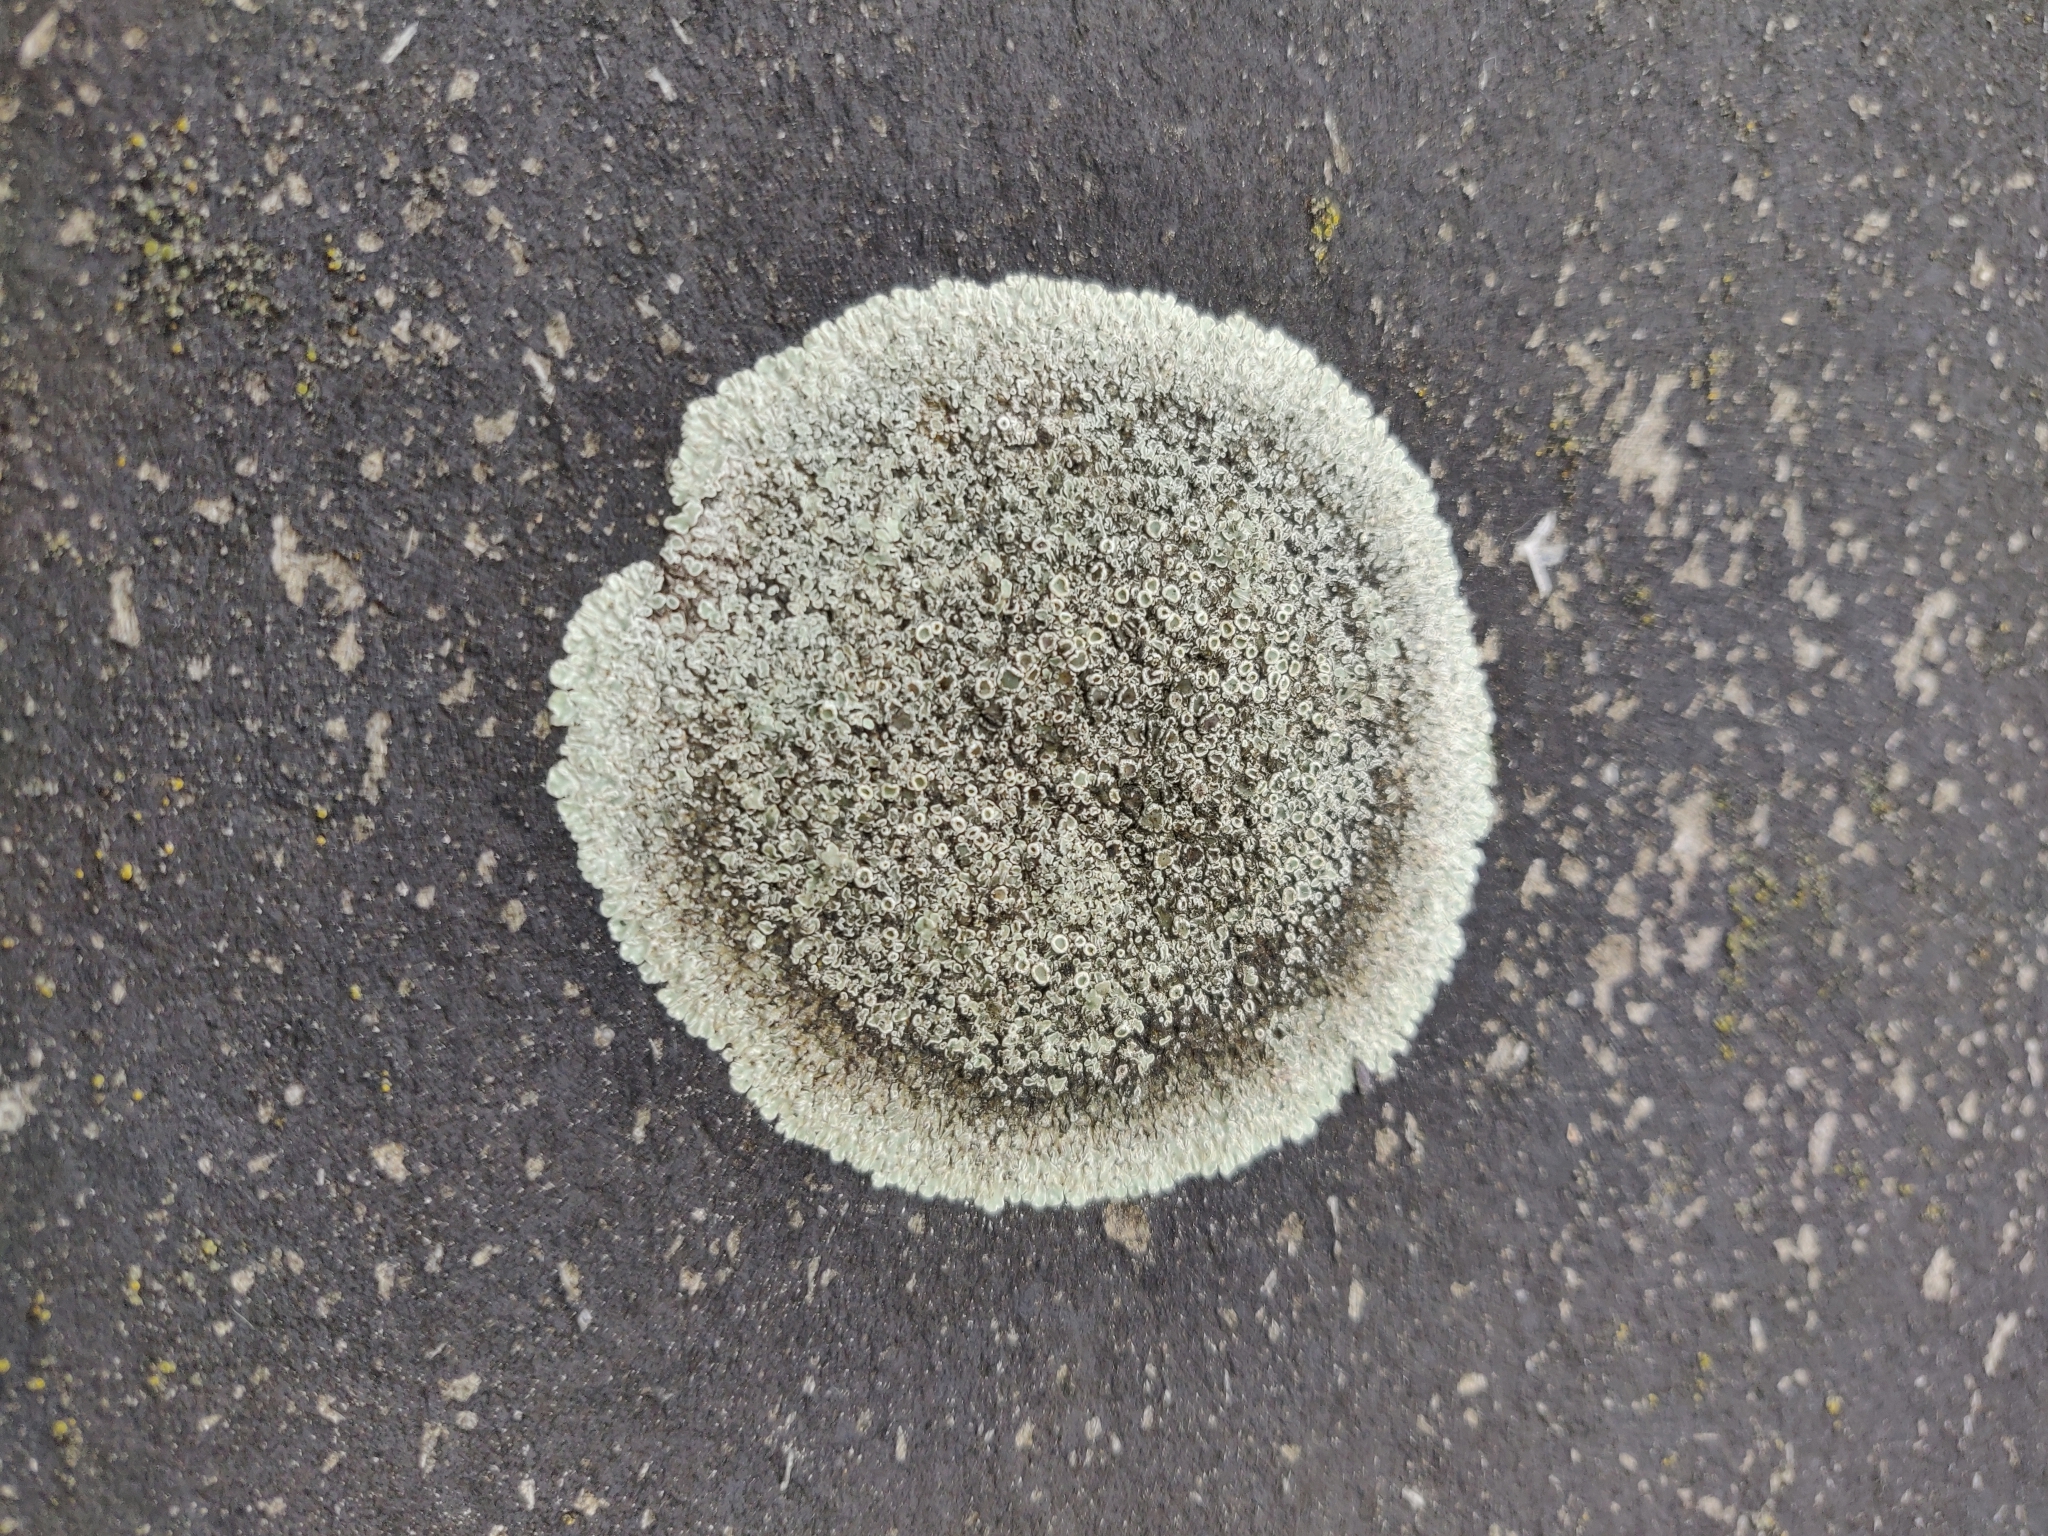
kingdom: Fungi
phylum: Ascomycota
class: Lecanoromycetes
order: Lecanorales
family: Lecanoraceae
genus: Protoparmeliopsis
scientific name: Protoparmeliopsis muralis
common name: Stonewall rim lichen
